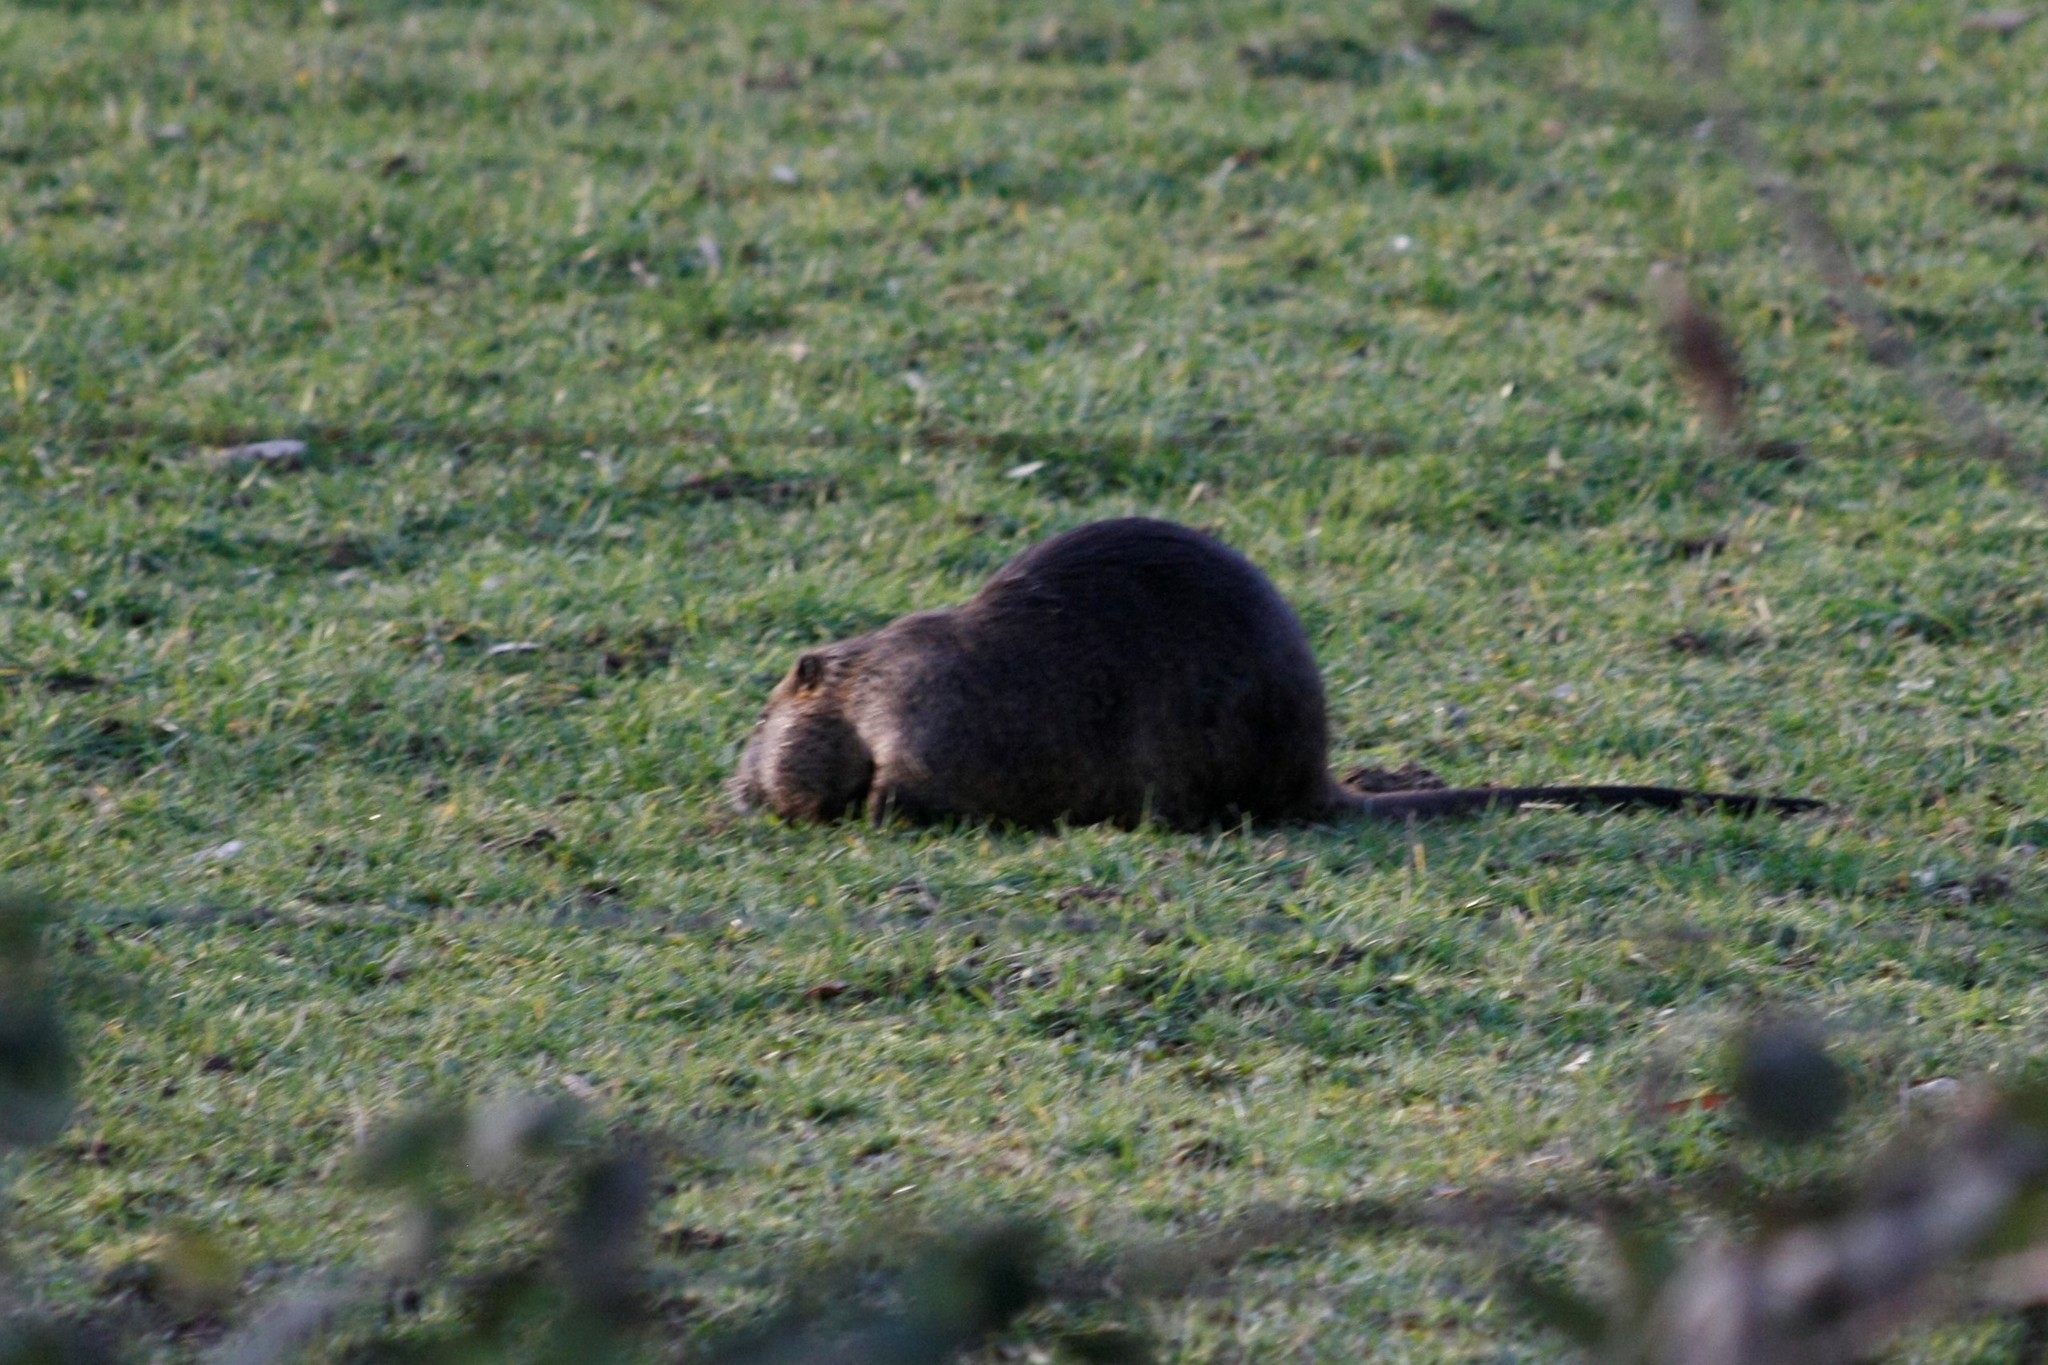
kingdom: Animalia
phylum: Chordata
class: Mammalia
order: Rodentia
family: Myocastoridae
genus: Myocastor
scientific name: Myocastor coypus
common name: Coypu
